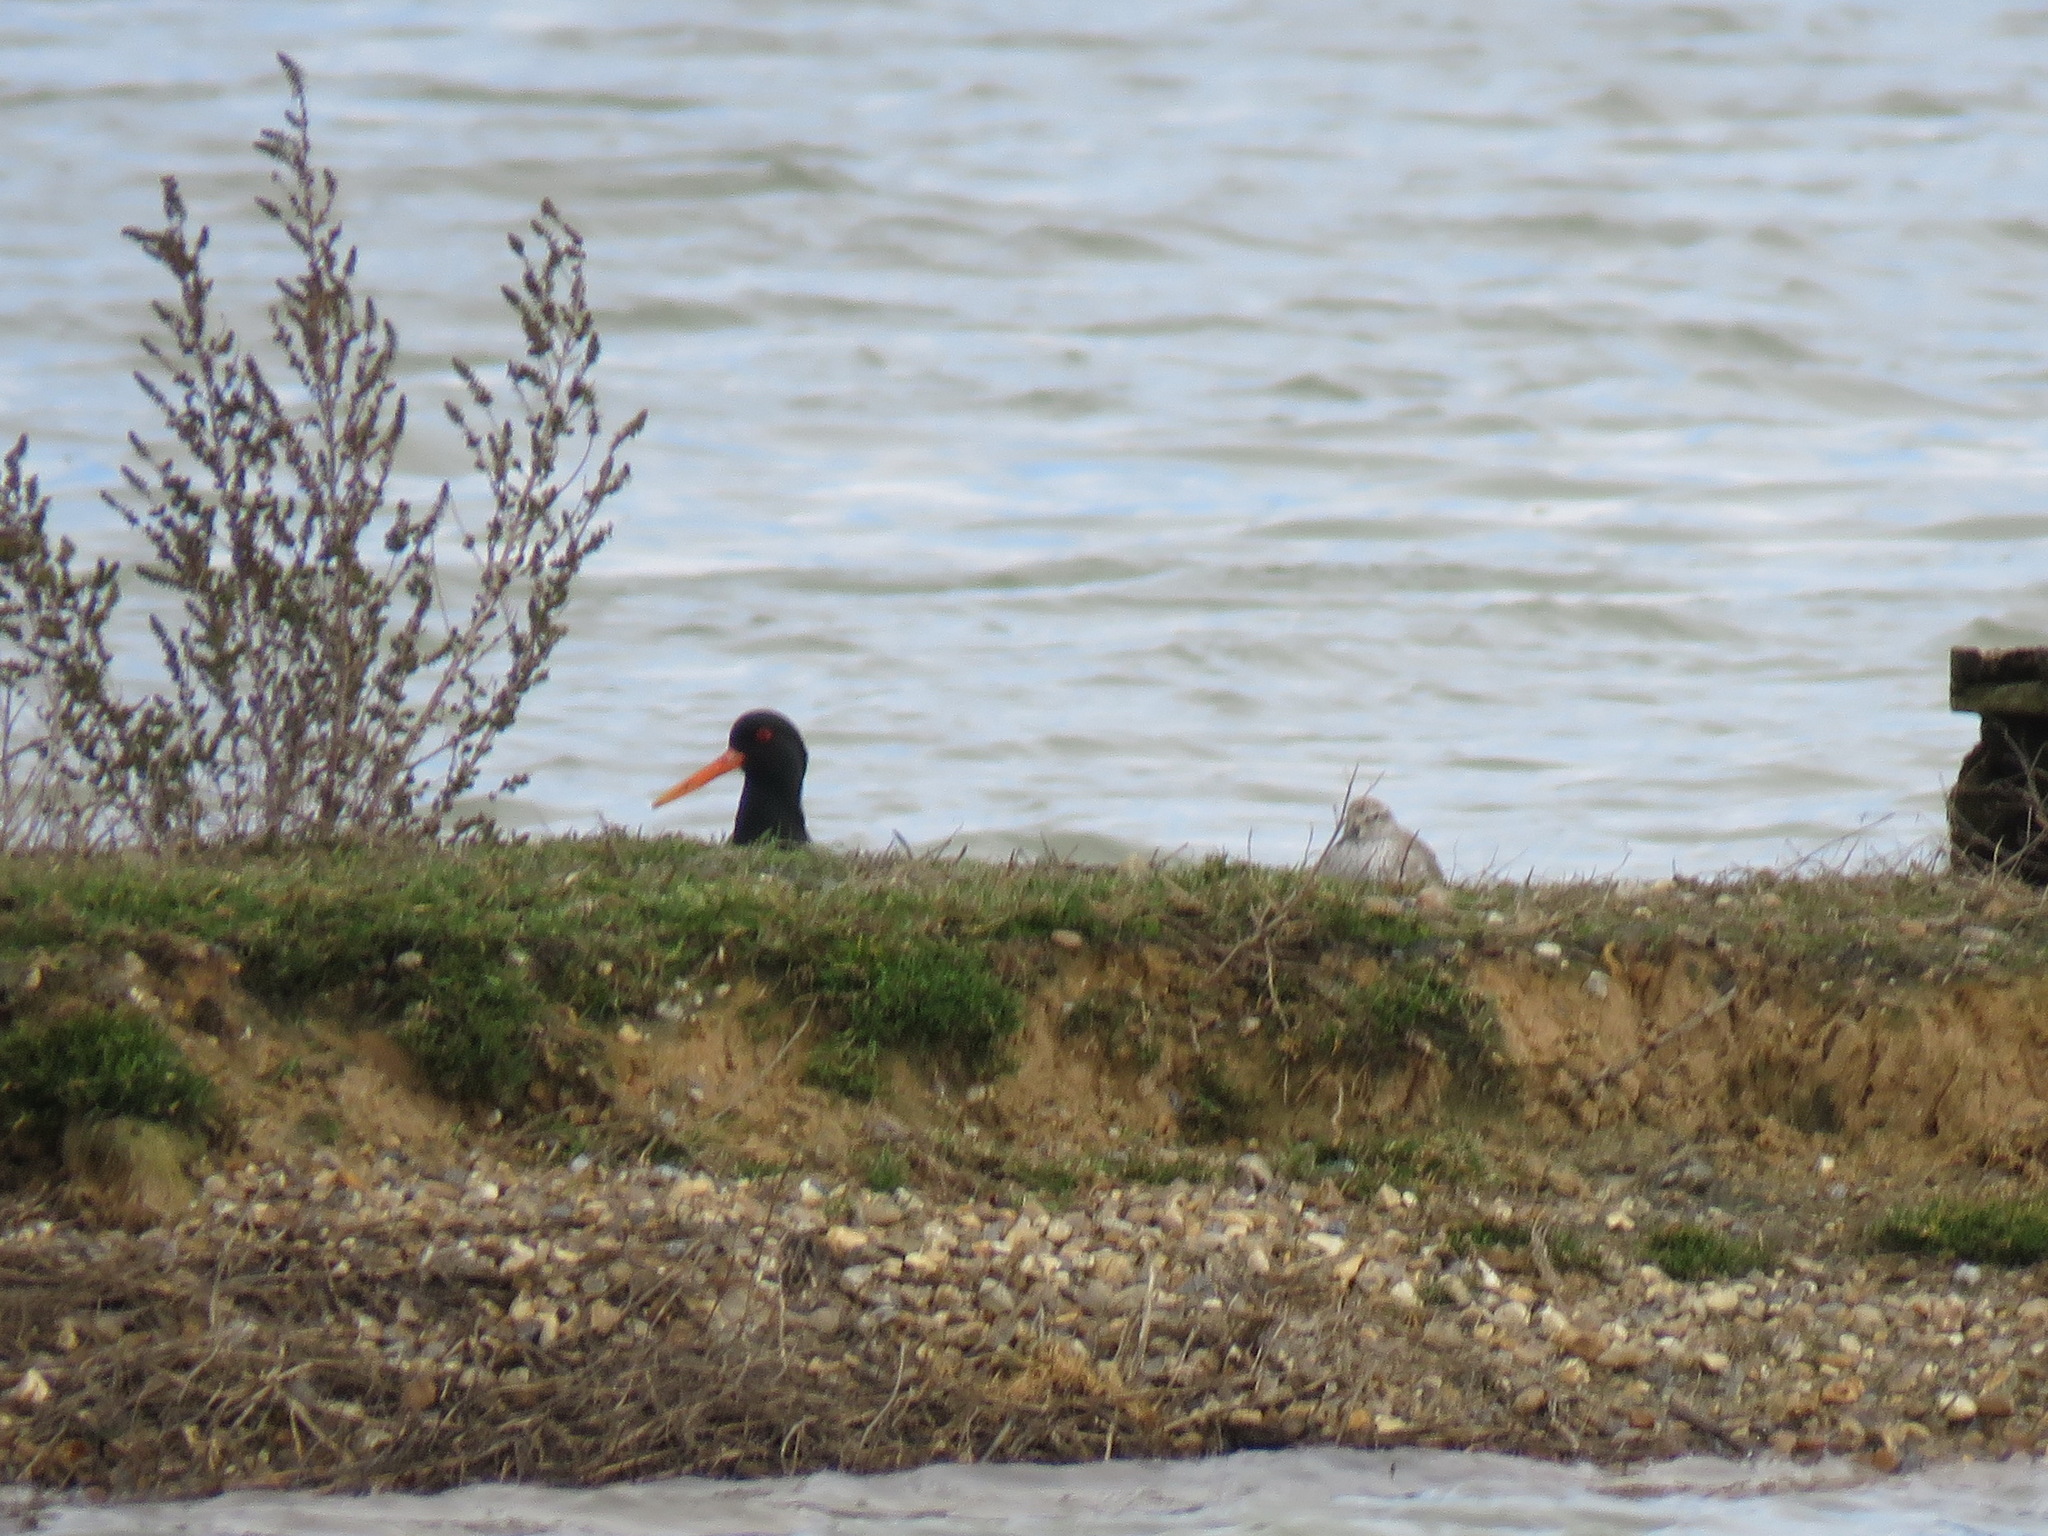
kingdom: Animalia
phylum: Chordata
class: Aves
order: Charadriiformes
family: Haematopodidae
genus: Haematopus
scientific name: Haematopus ostralegus
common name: Eurasian oystercatcher
